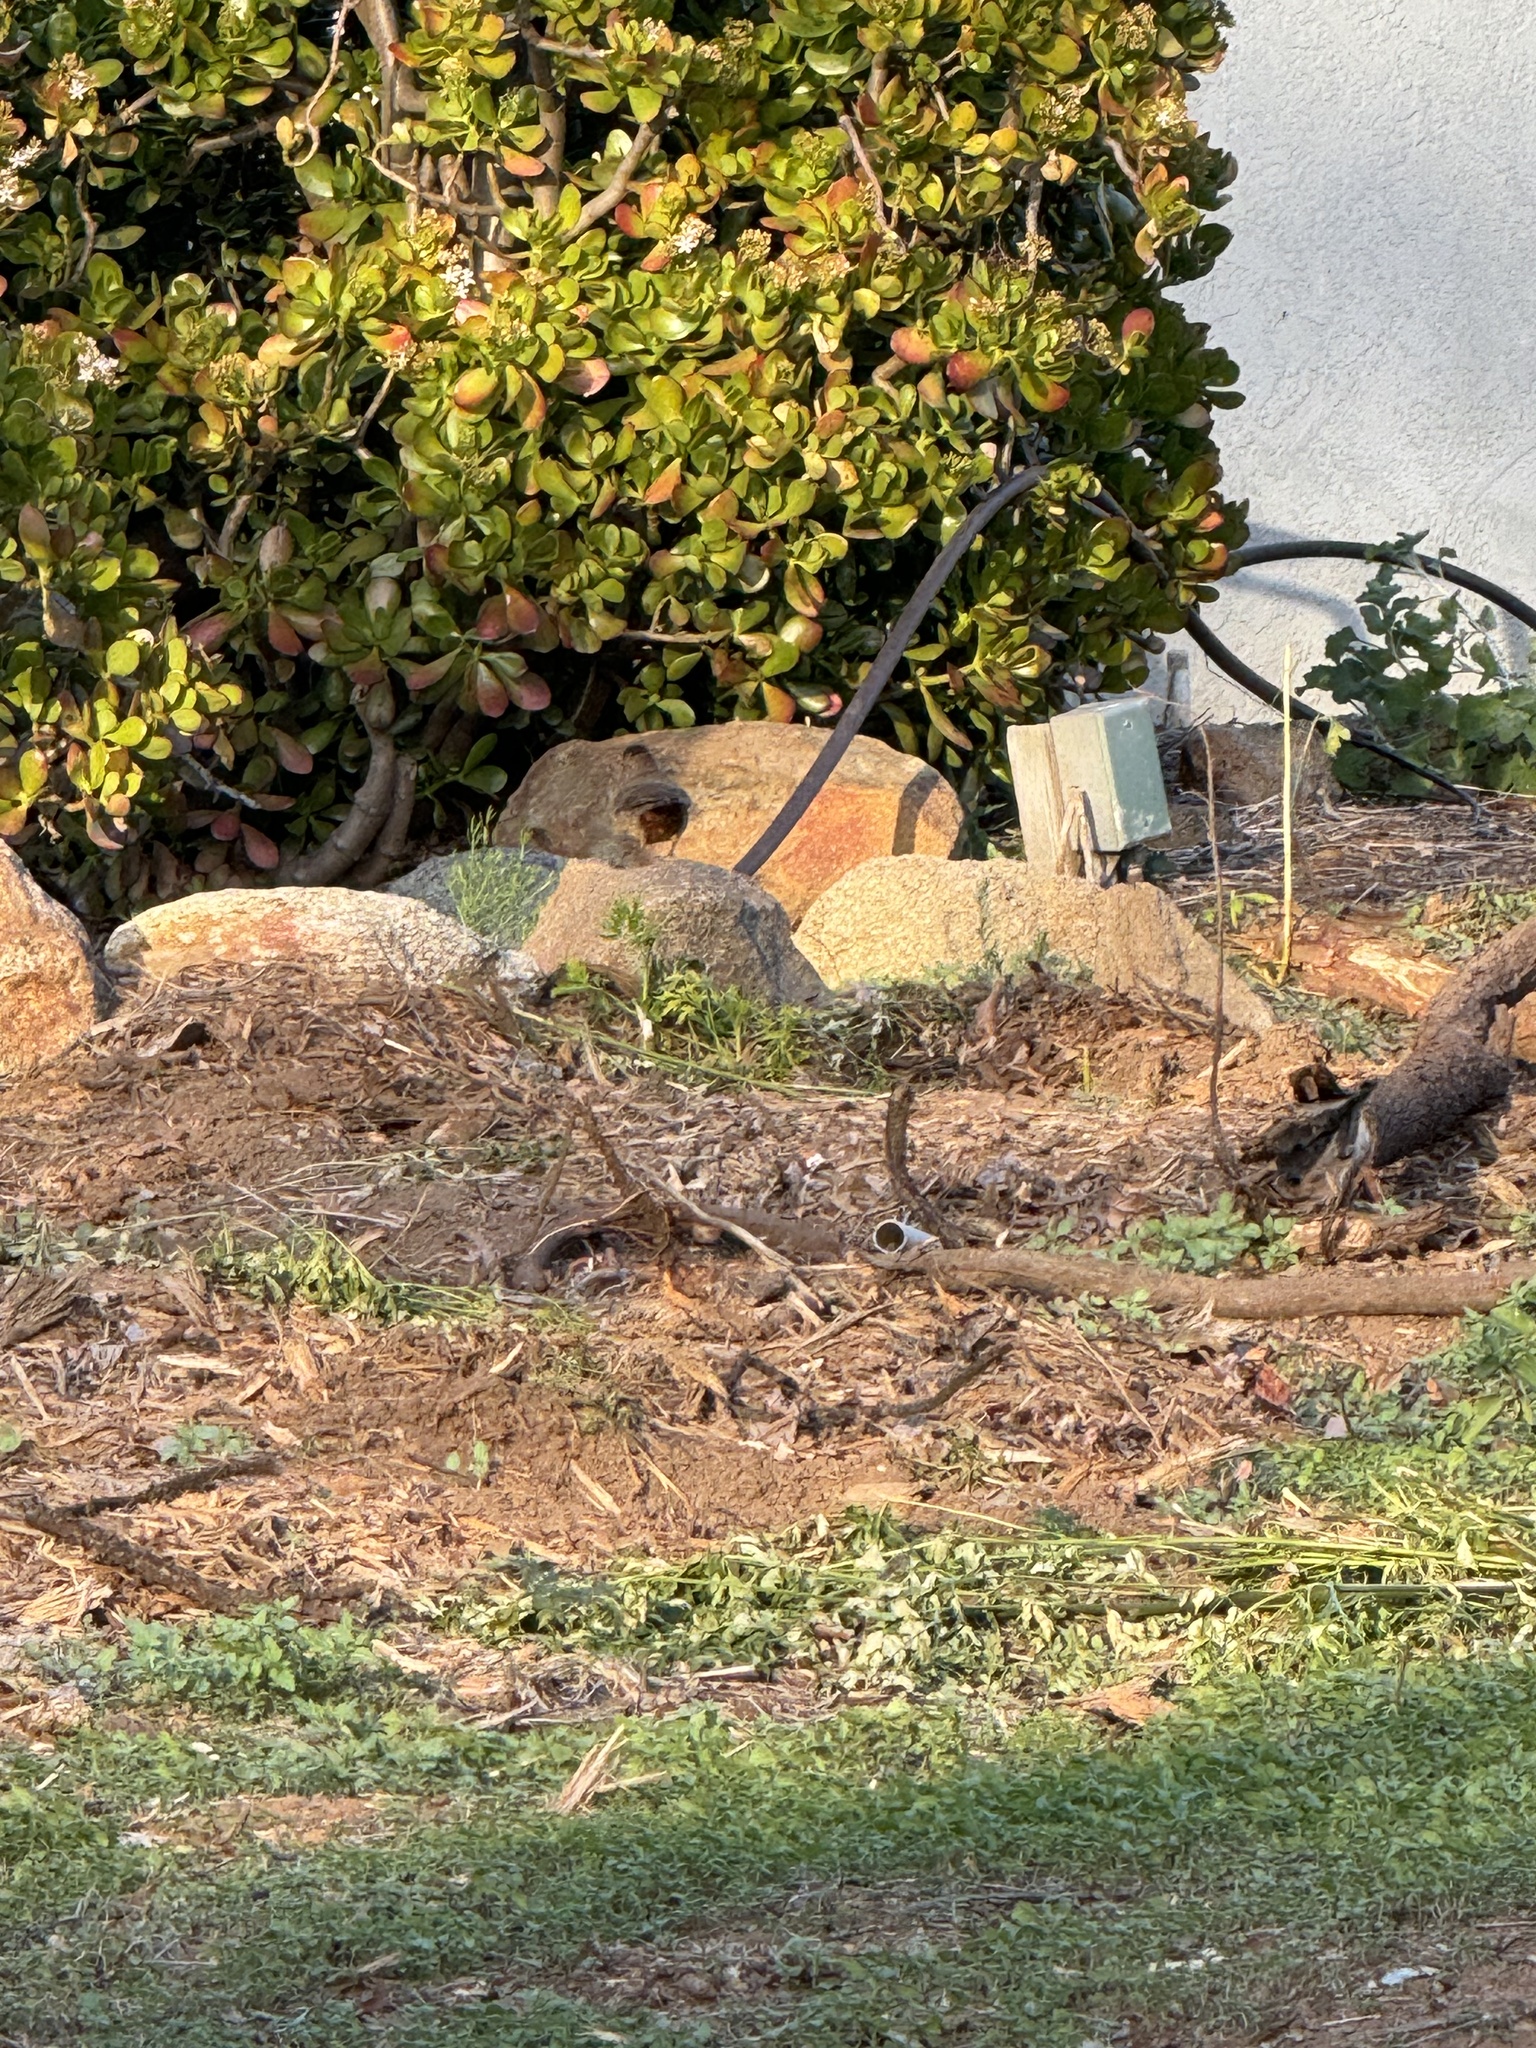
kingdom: Animalia
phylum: Chordata
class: Aves
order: Passeriformes
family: Passerellidae
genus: Melozone
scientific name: Melozone crissalis
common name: California towhee
